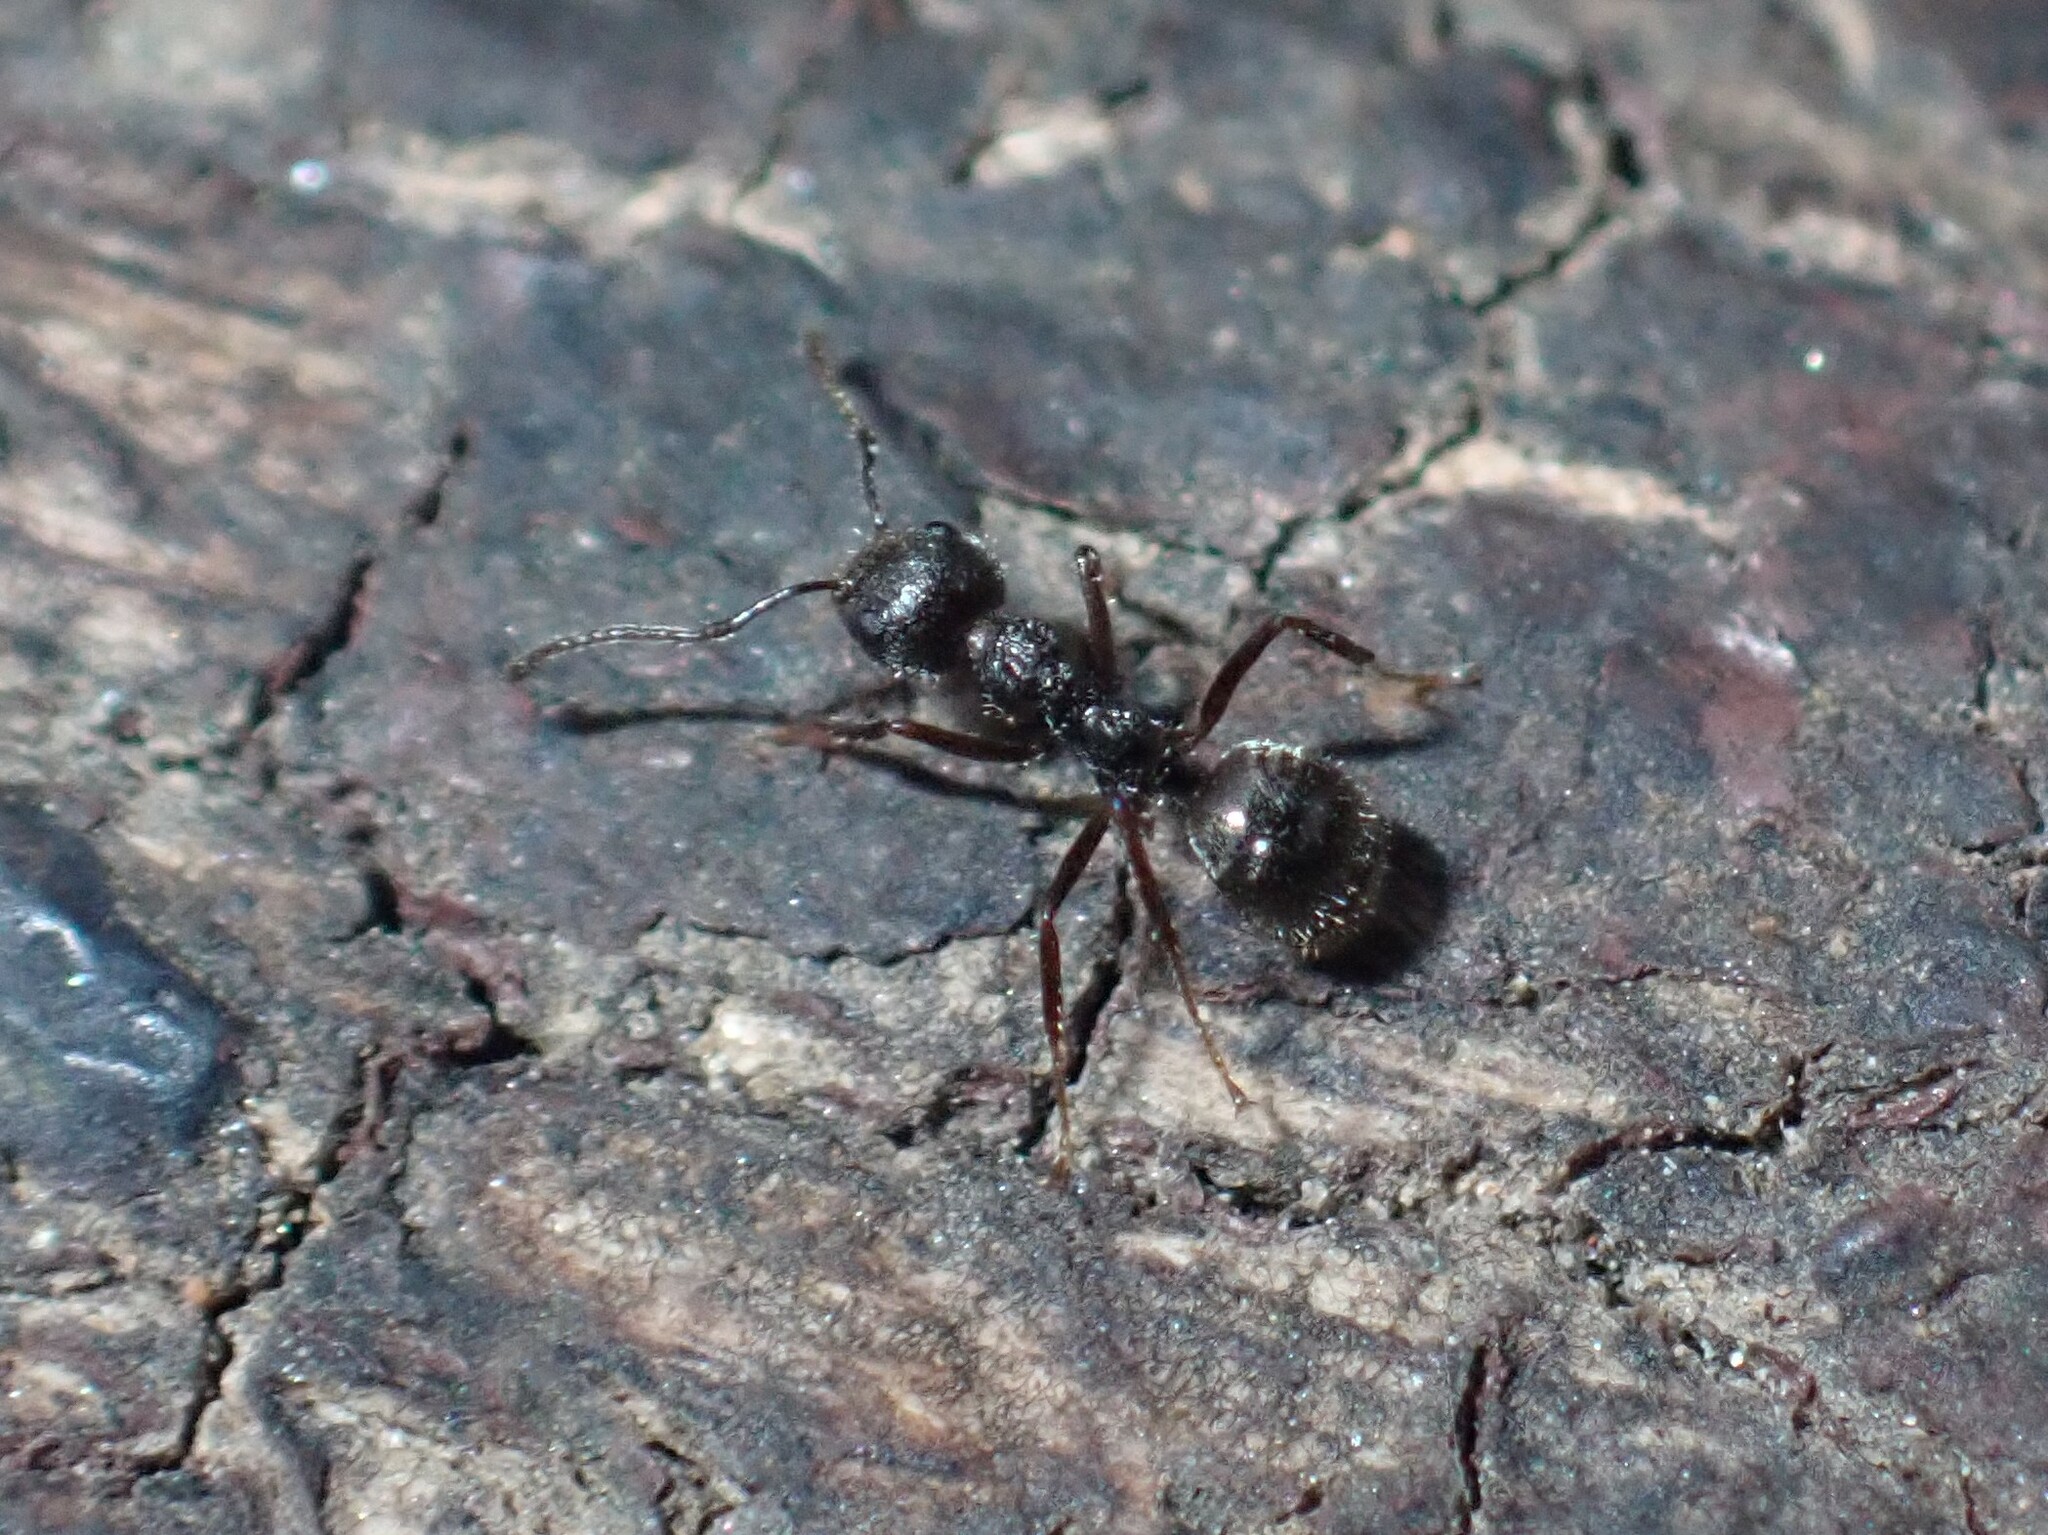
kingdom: Animalia
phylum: Arthropoda
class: Insecta
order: Hymenoptera
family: Formicidae
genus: Dolichoderus
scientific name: Dolichoderus thoracicus
